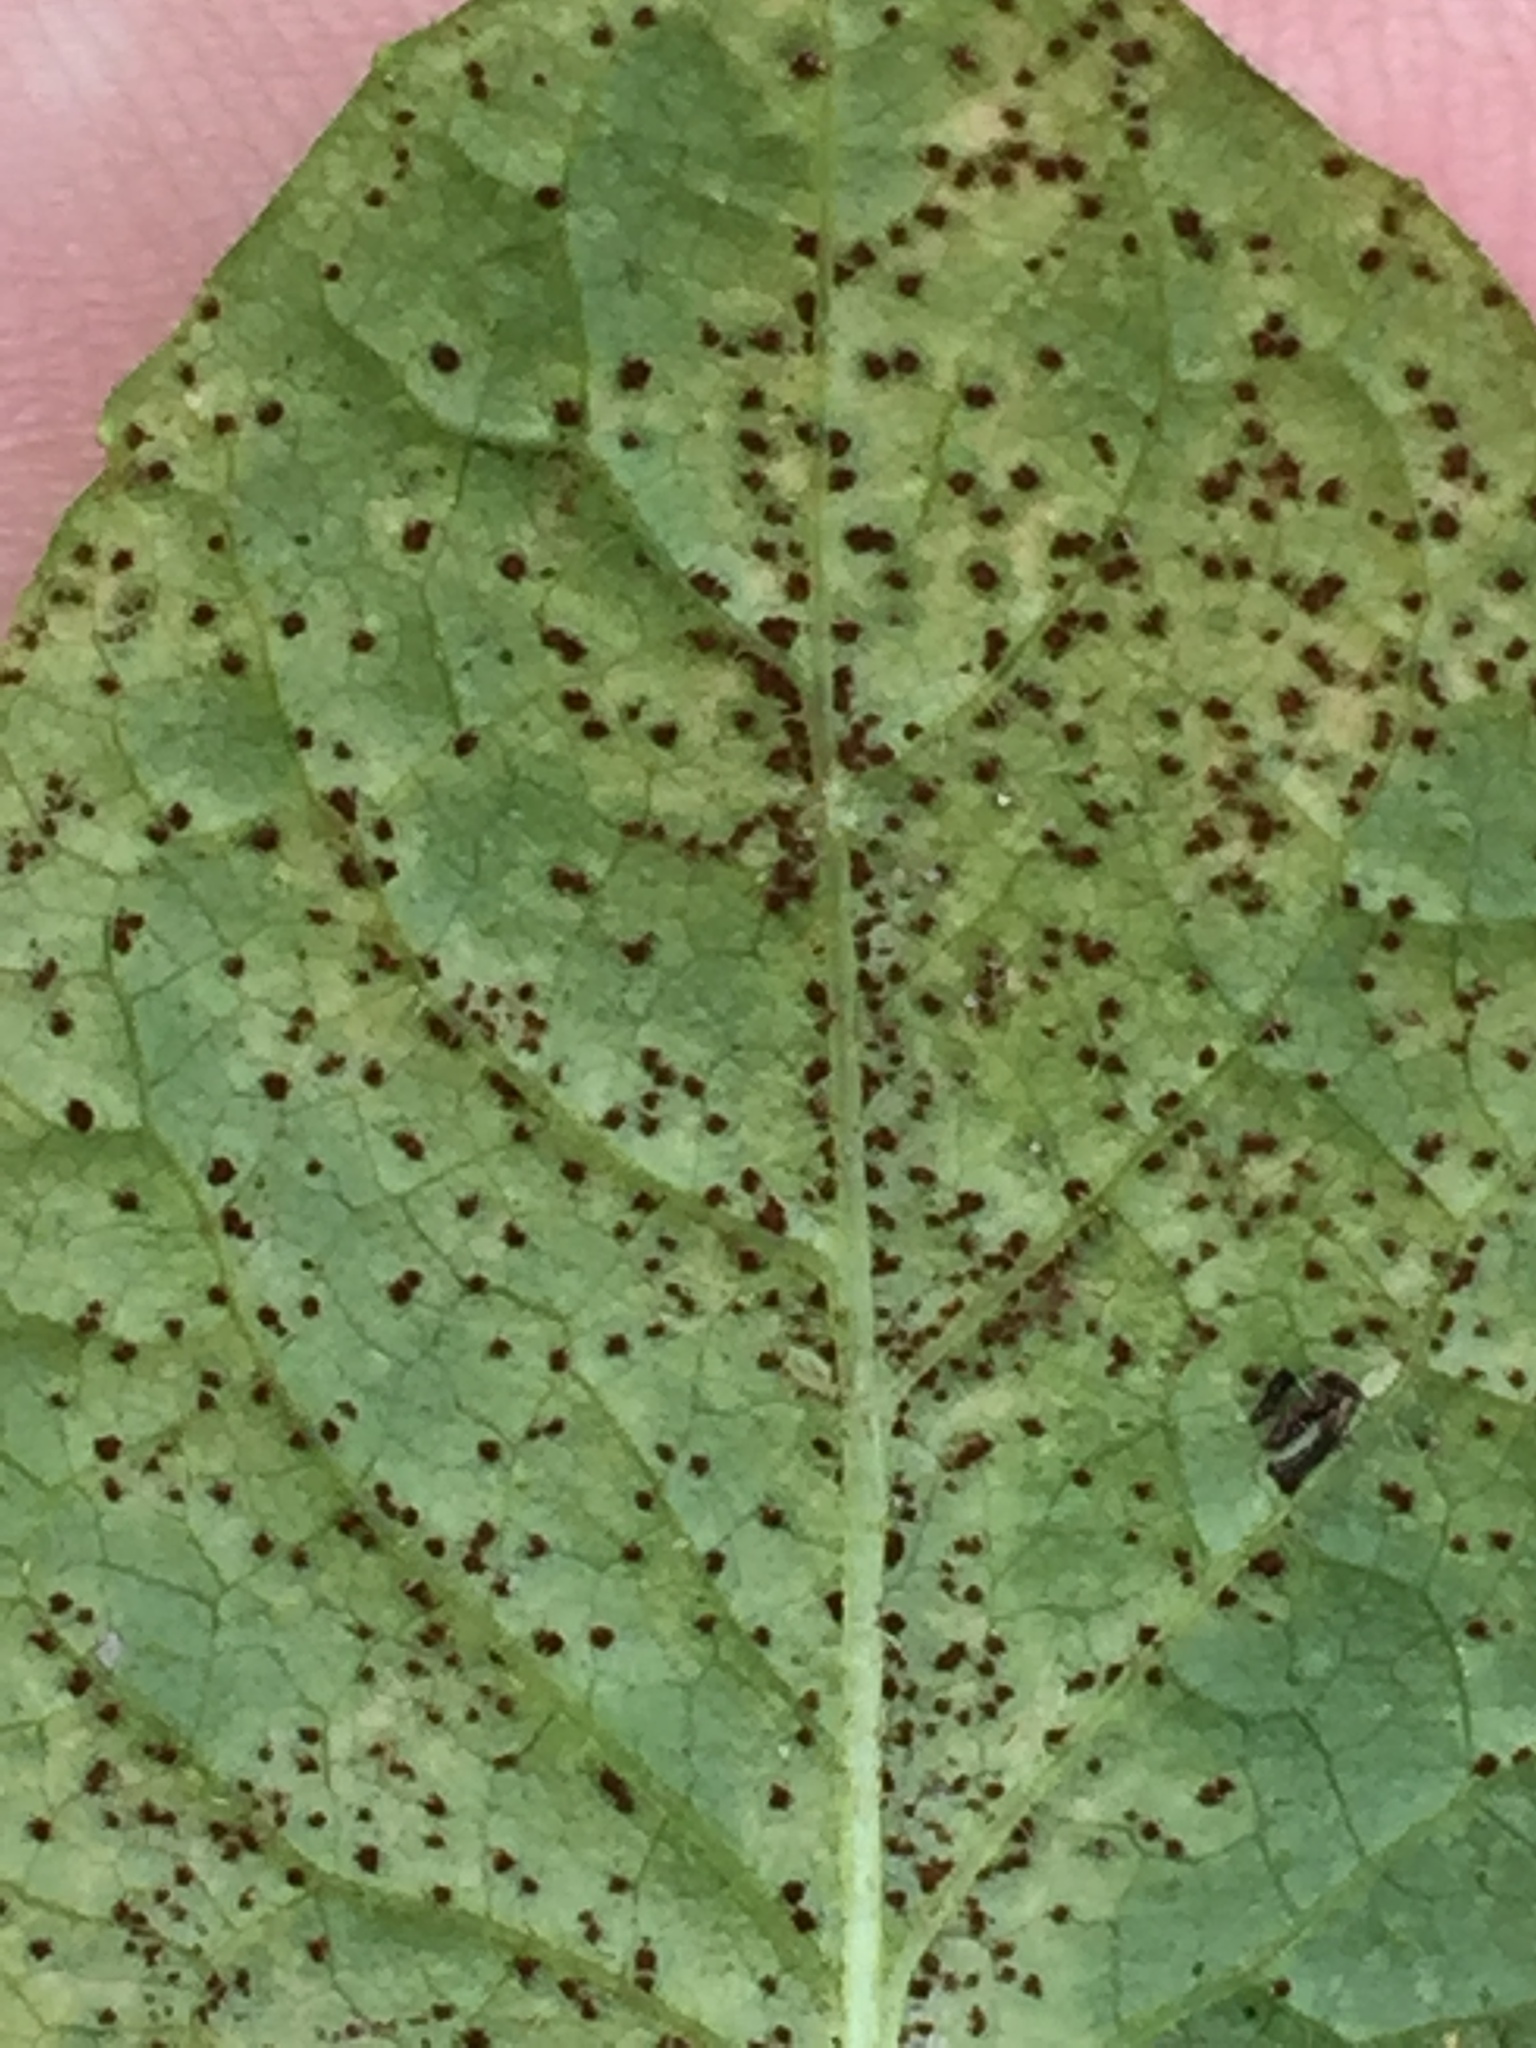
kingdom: Fungi
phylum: Basidiomycota
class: Pucciniomycetes
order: Pucciniales
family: Pucciniaceae
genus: Puccinia
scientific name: Puccinia lapsanae
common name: Nipplewort rust
